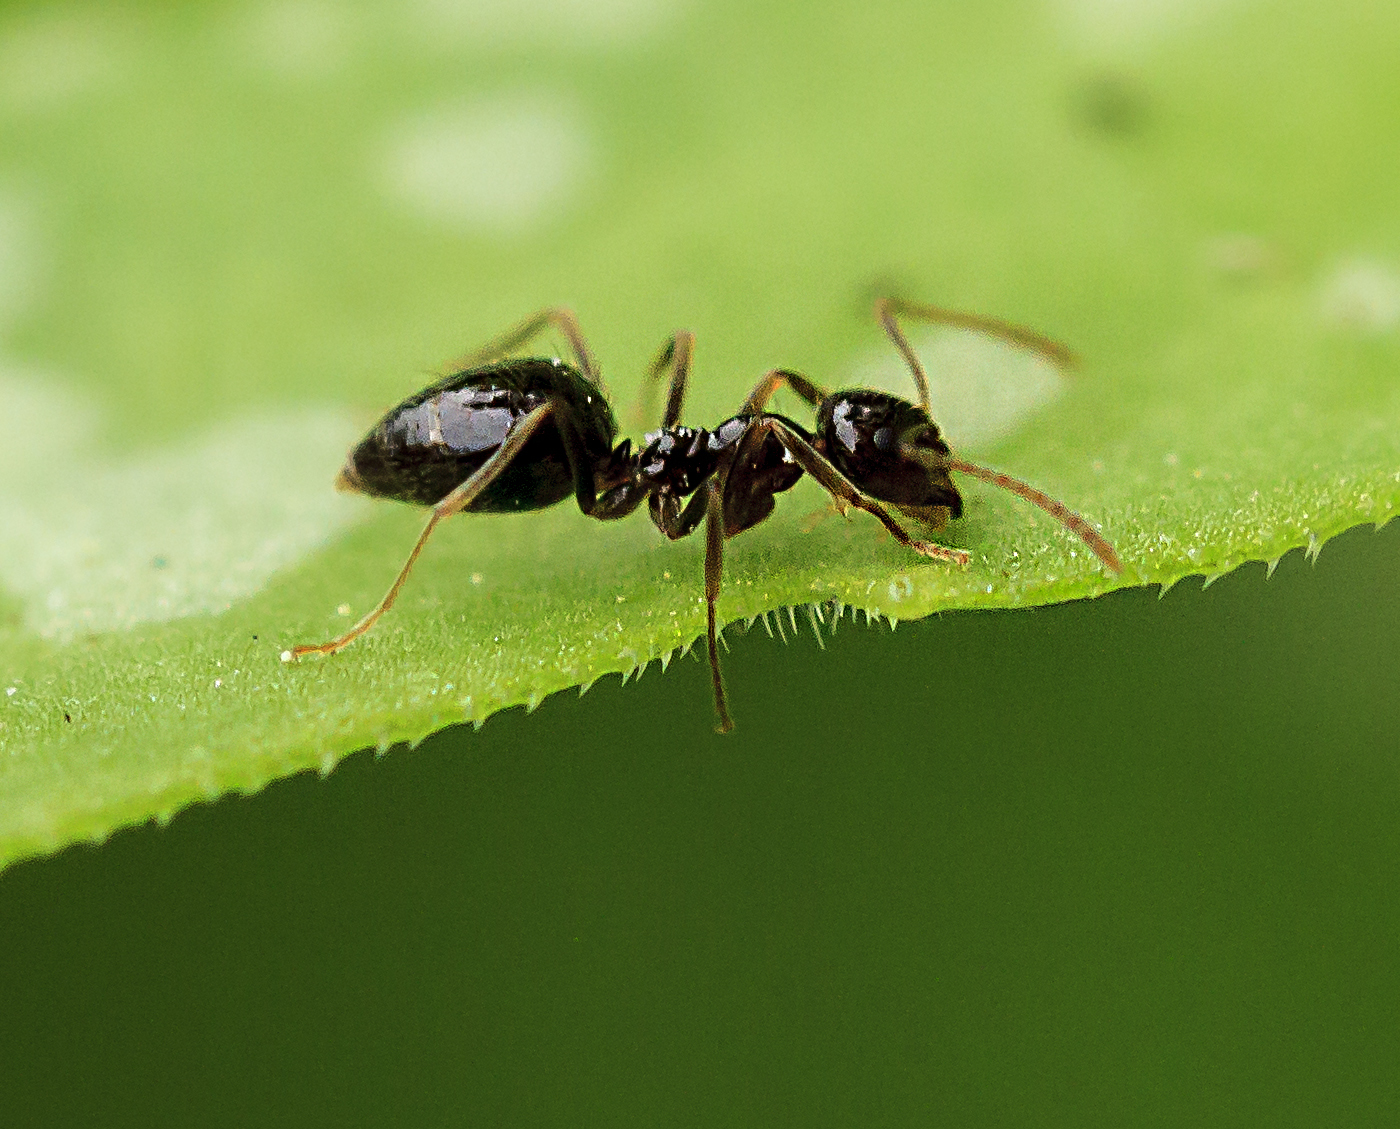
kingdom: Animalia
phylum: Arthropoda
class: Insecta
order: Hymenoptera
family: Formicidae
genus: Prenolepis
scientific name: Prenolepis imparis
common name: Small honey ant
